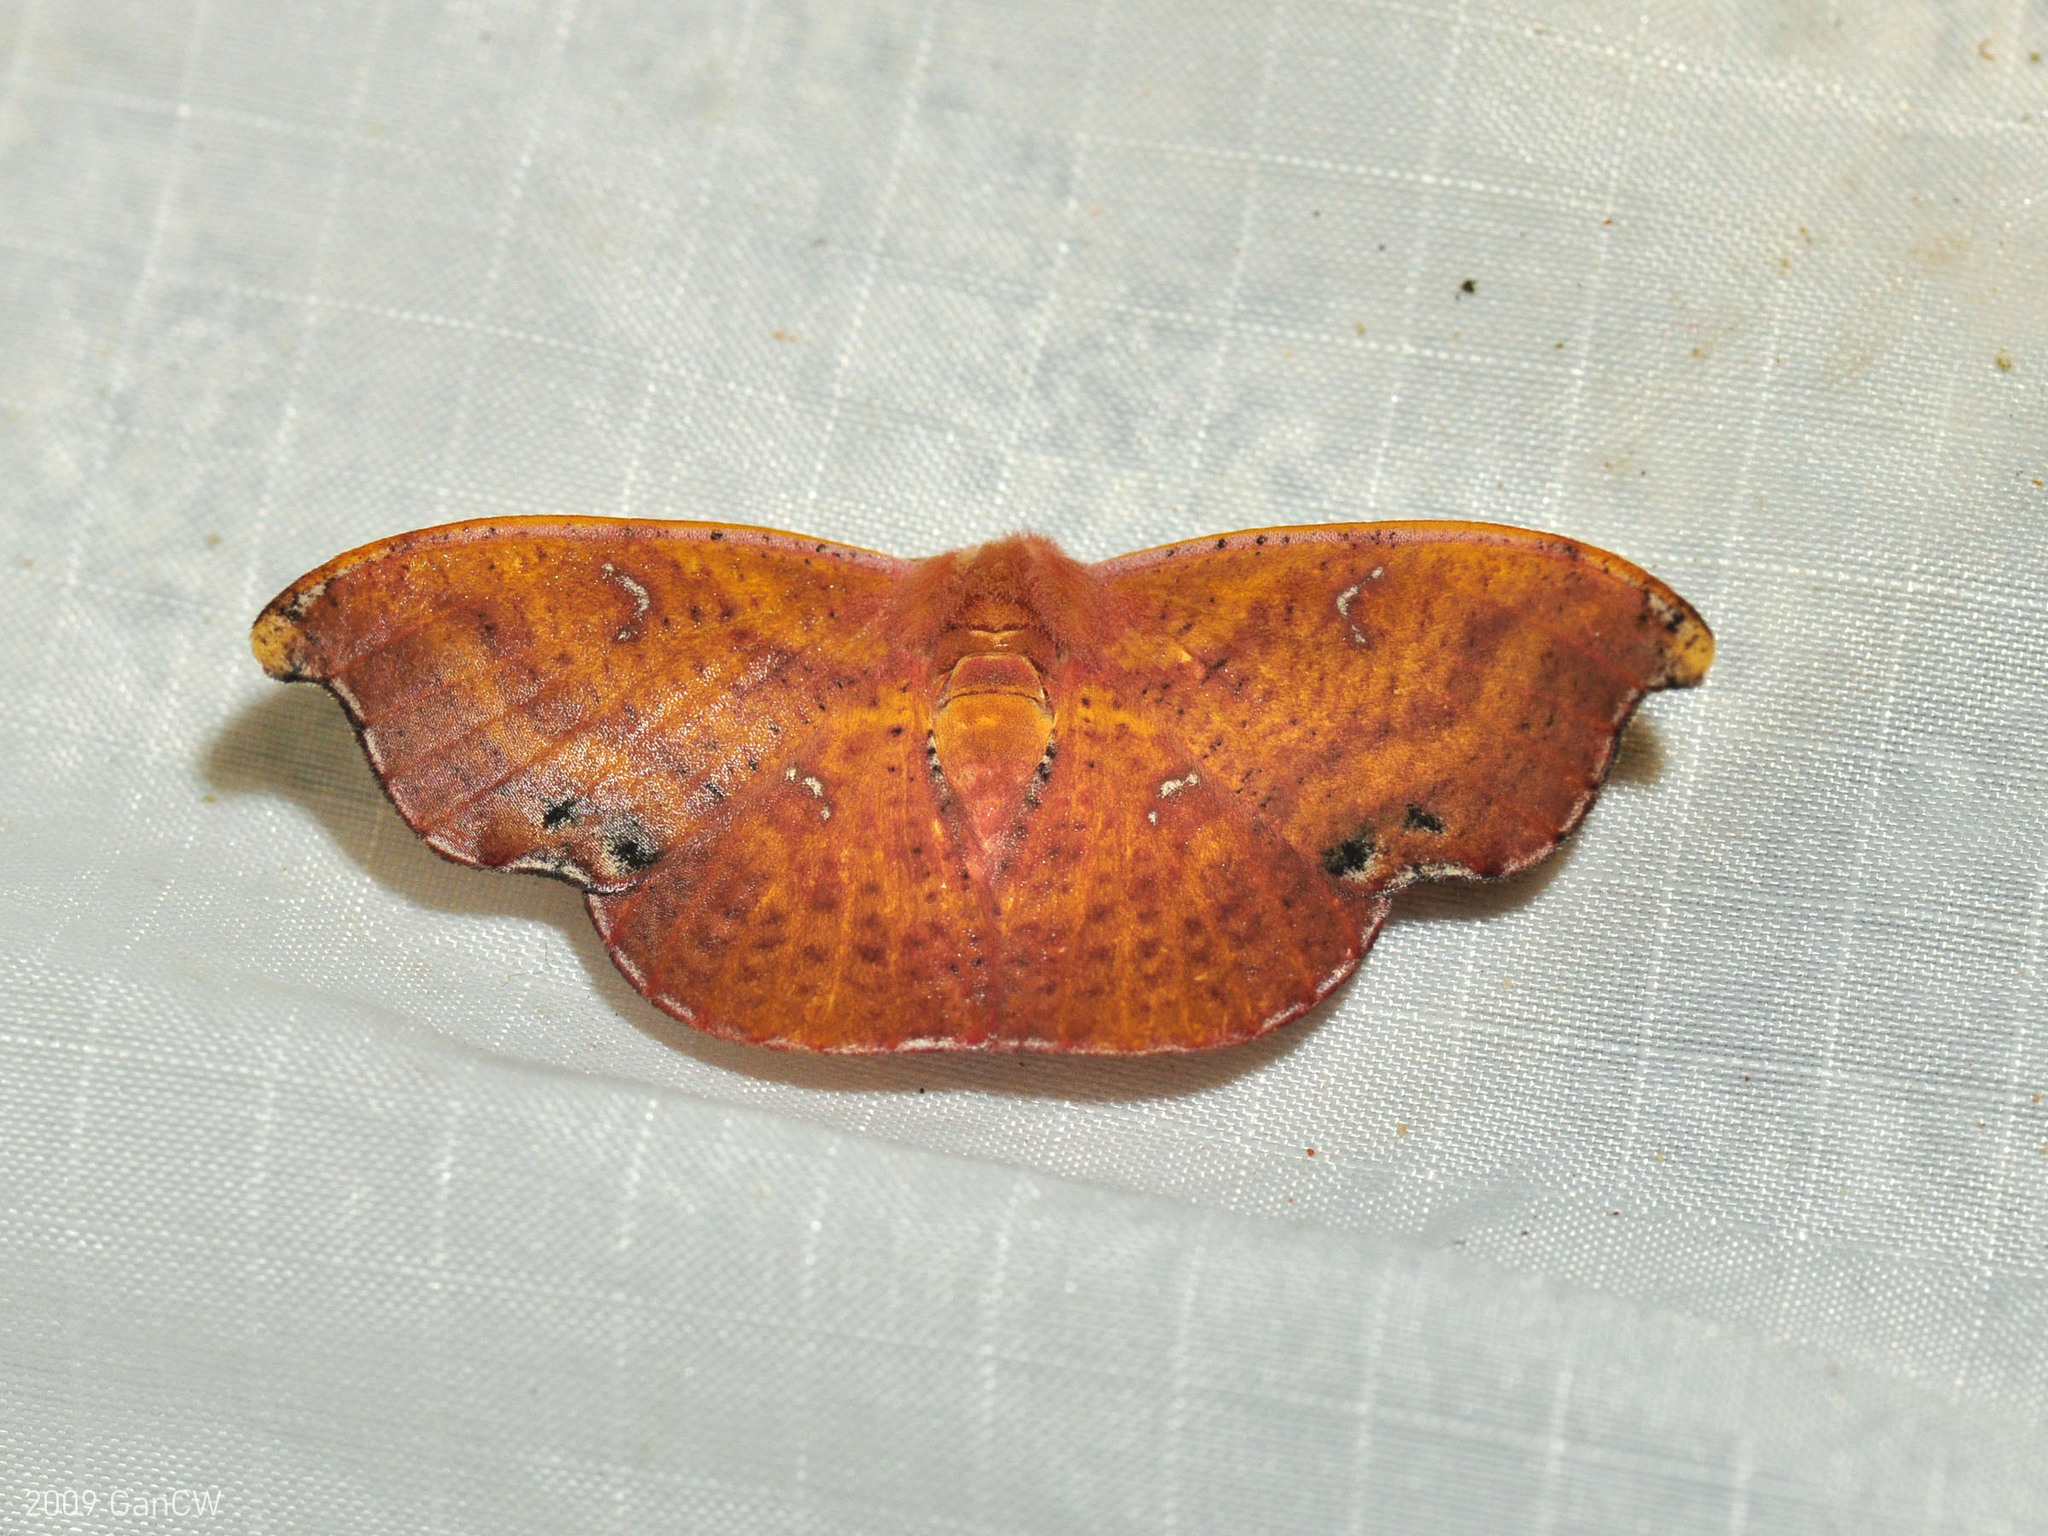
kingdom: Animalia
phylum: Arthropoda
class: Insecta
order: Lepidoptera
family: Drepanidae
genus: Oreta
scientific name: Oreta fulgens
